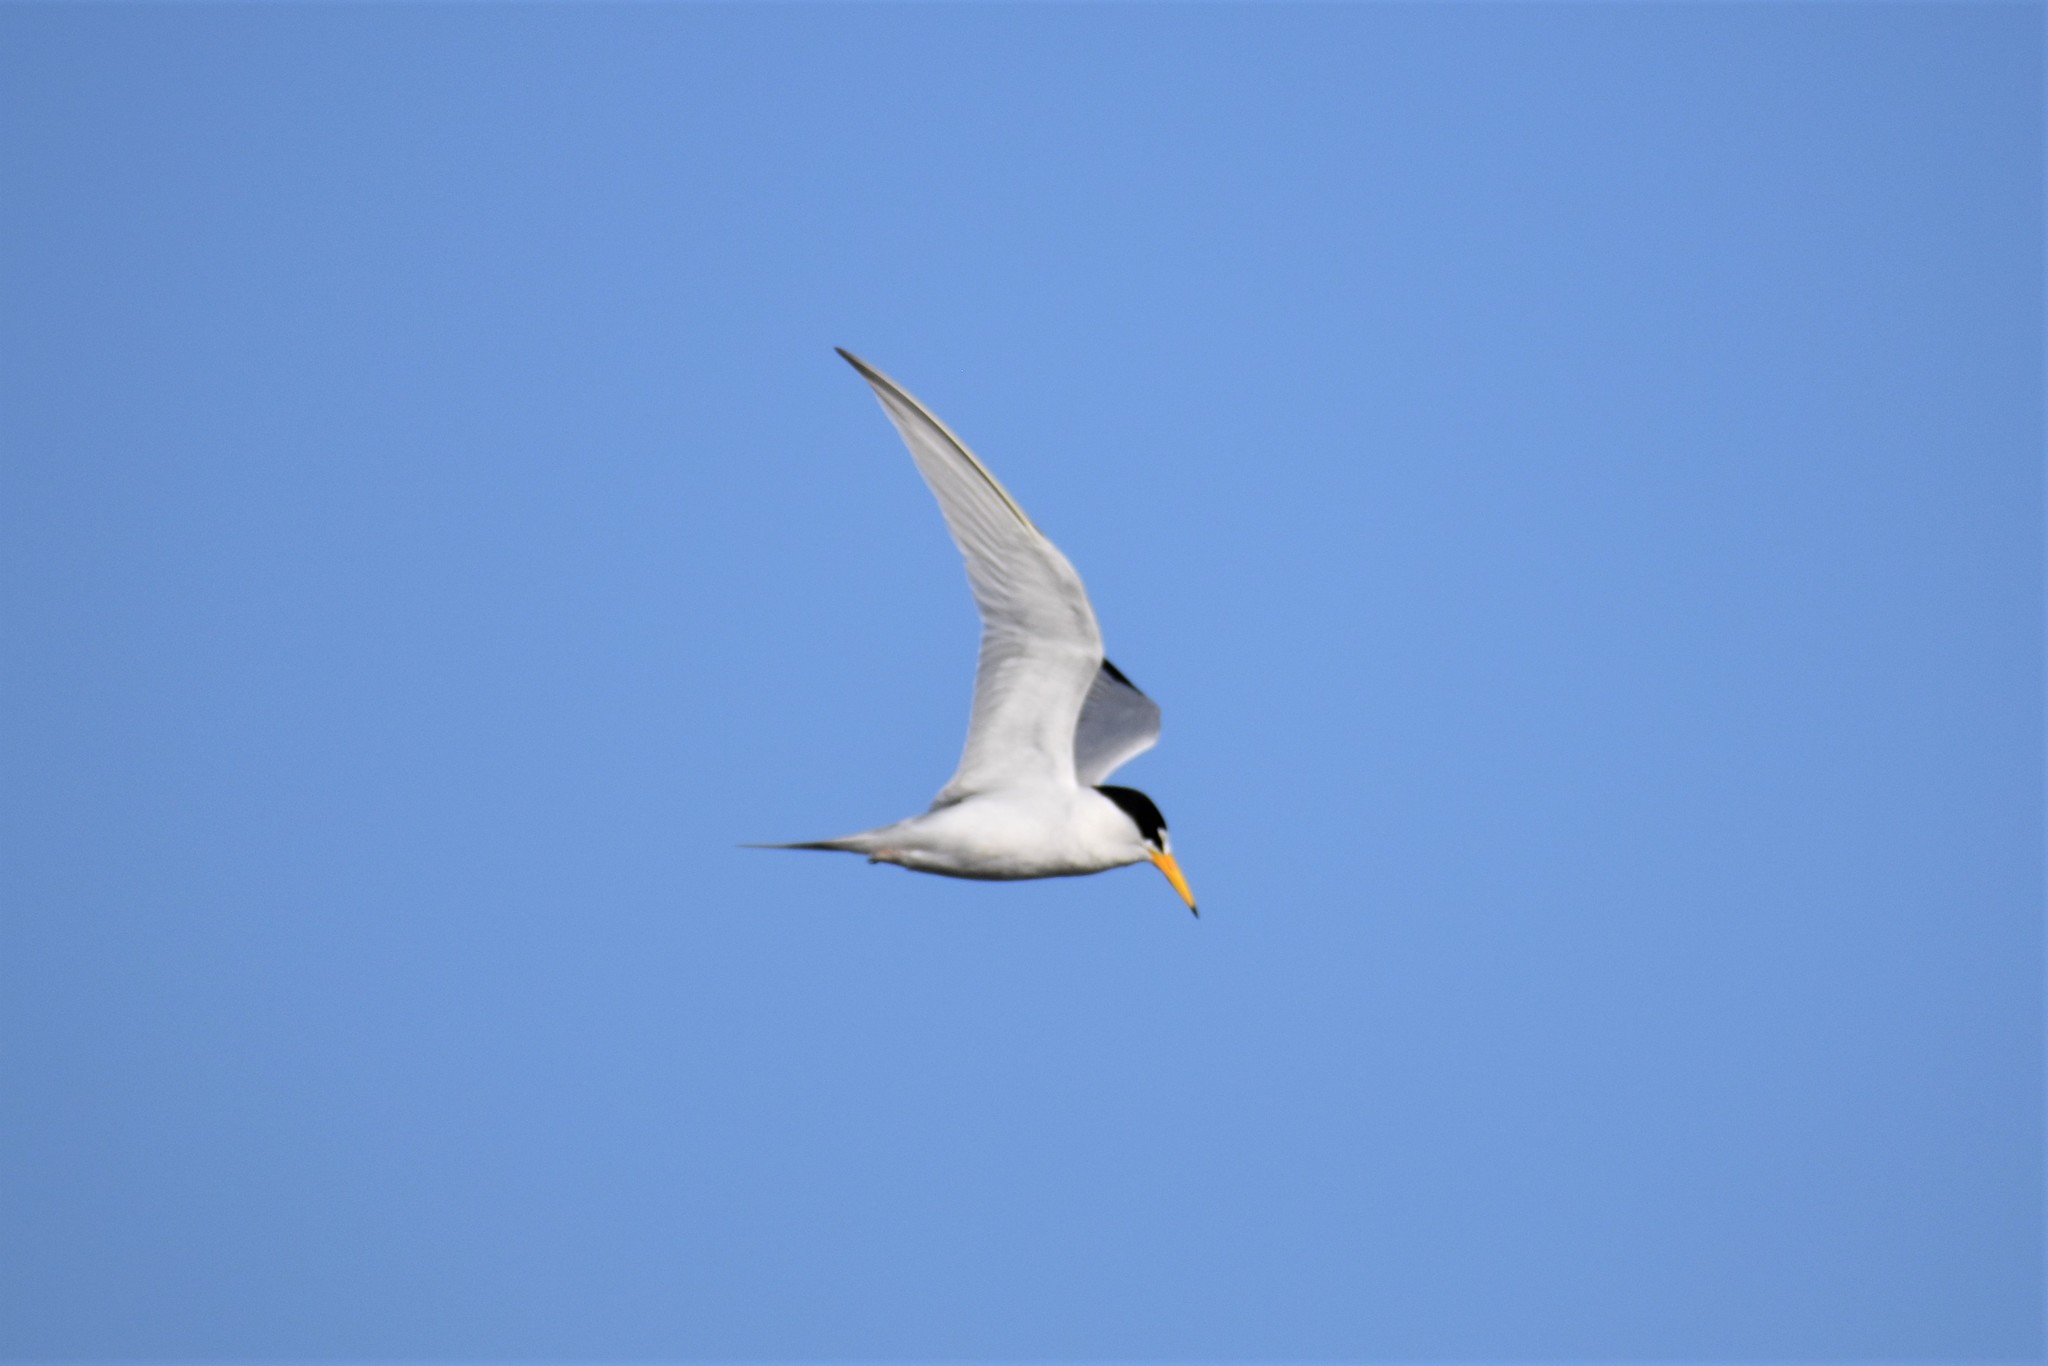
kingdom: Animalia
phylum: Chordata
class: Aves
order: Charadriiformes
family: Laridae
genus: Sternula
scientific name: Sternula antillarum
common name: Least tern
